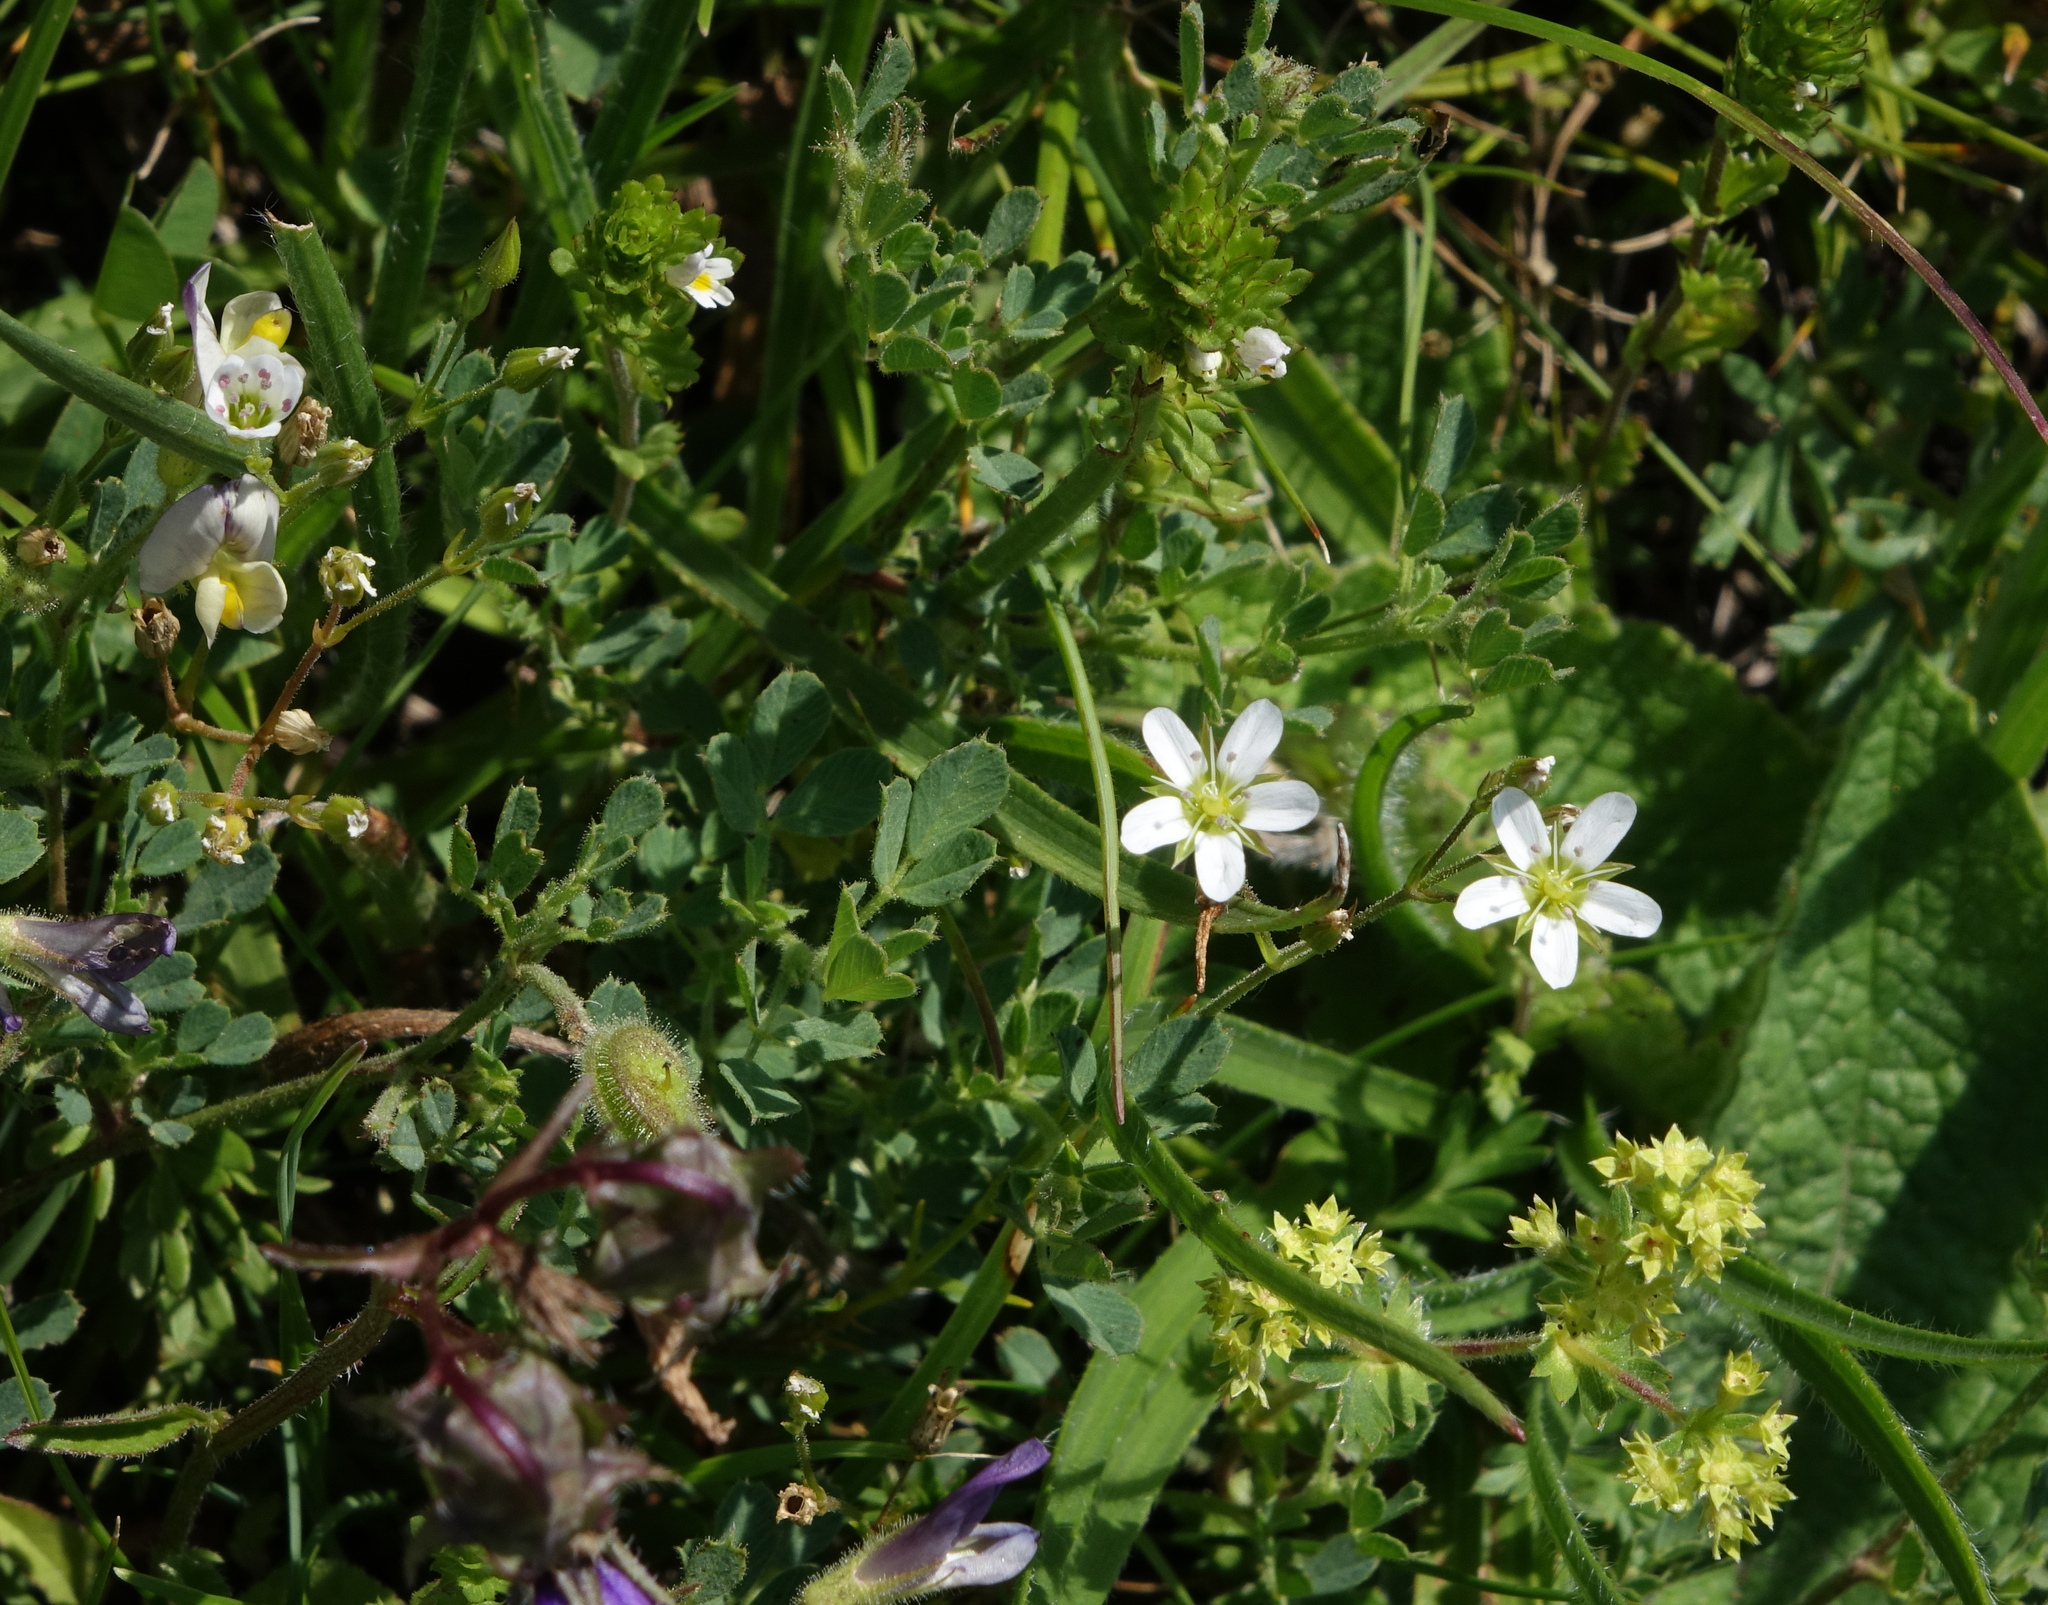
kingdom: Plantae
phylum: Tracheophyta
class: Magnoliopsida
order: Caryophyllales
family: Caryophyllaceae
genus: Minuartia
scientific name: Minuartia hirsuta
